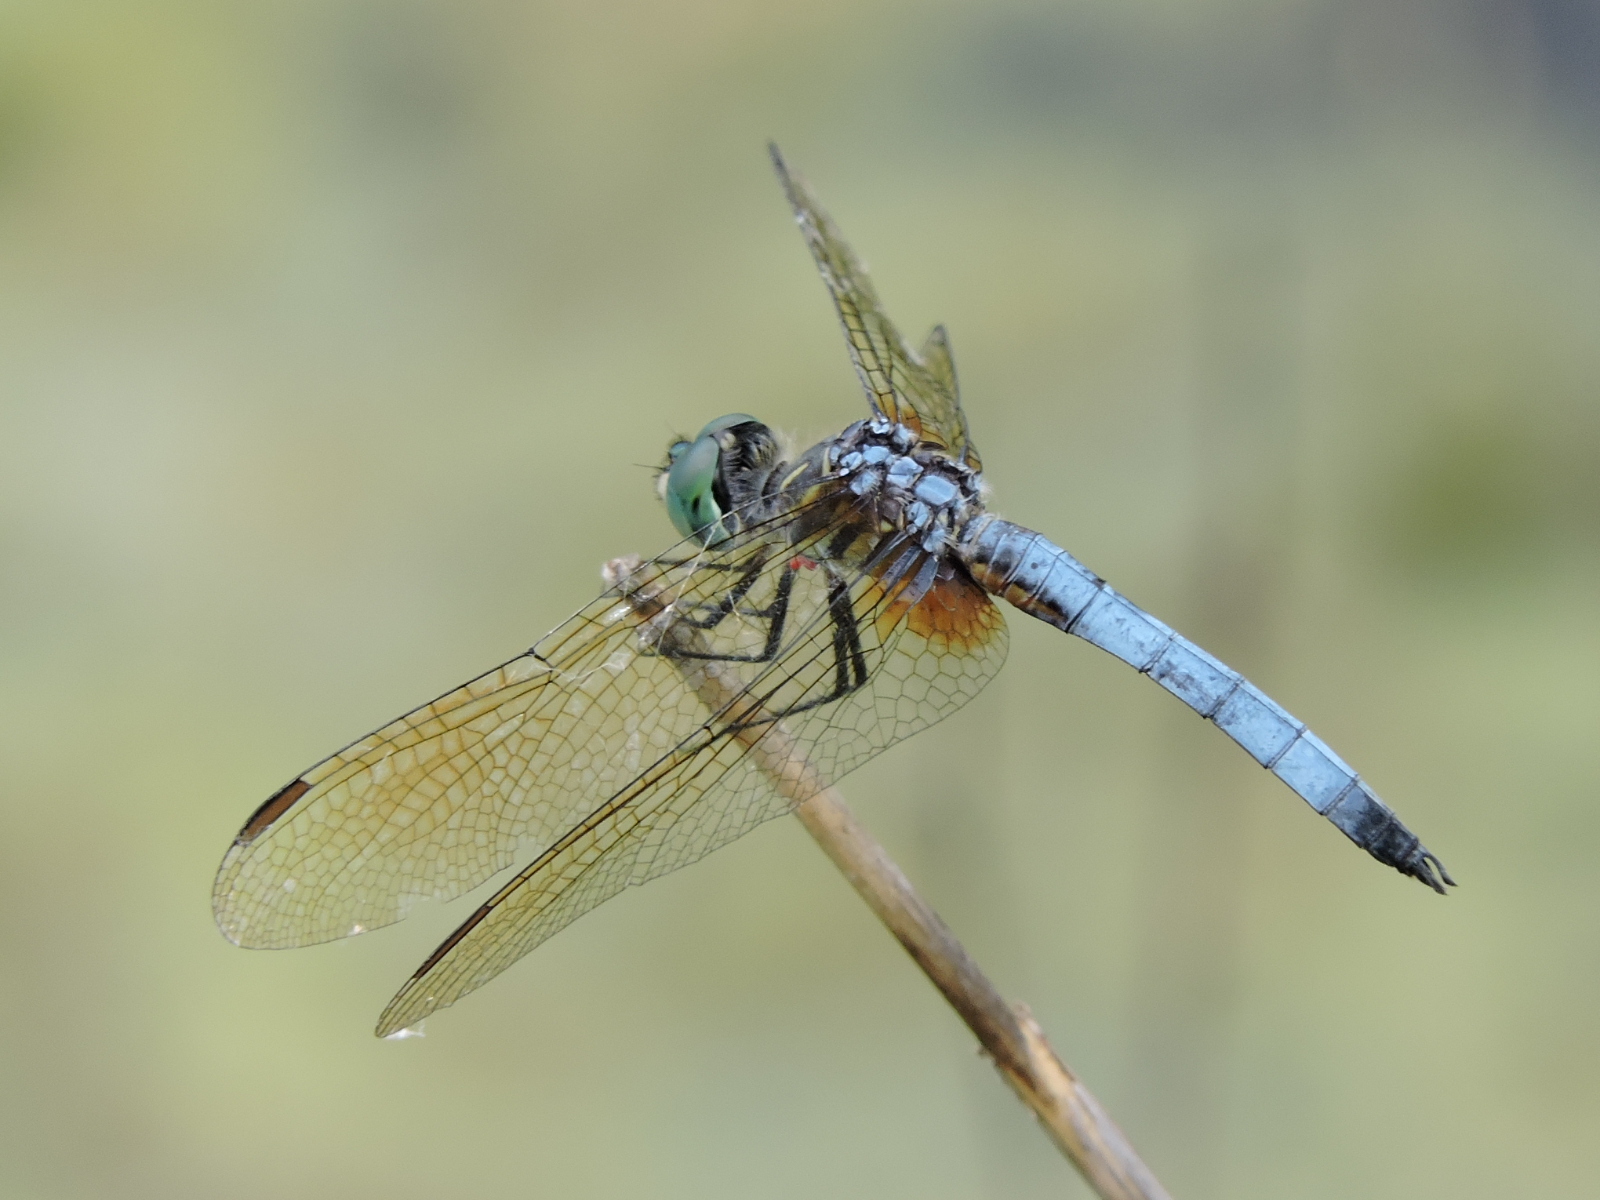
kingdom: Animalia
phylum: Arthropoda
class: Insecta
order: Odonata
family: Libellulidae
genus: Pachydiplax
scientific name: Pachydiplax longipennis
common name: Blue dasher
